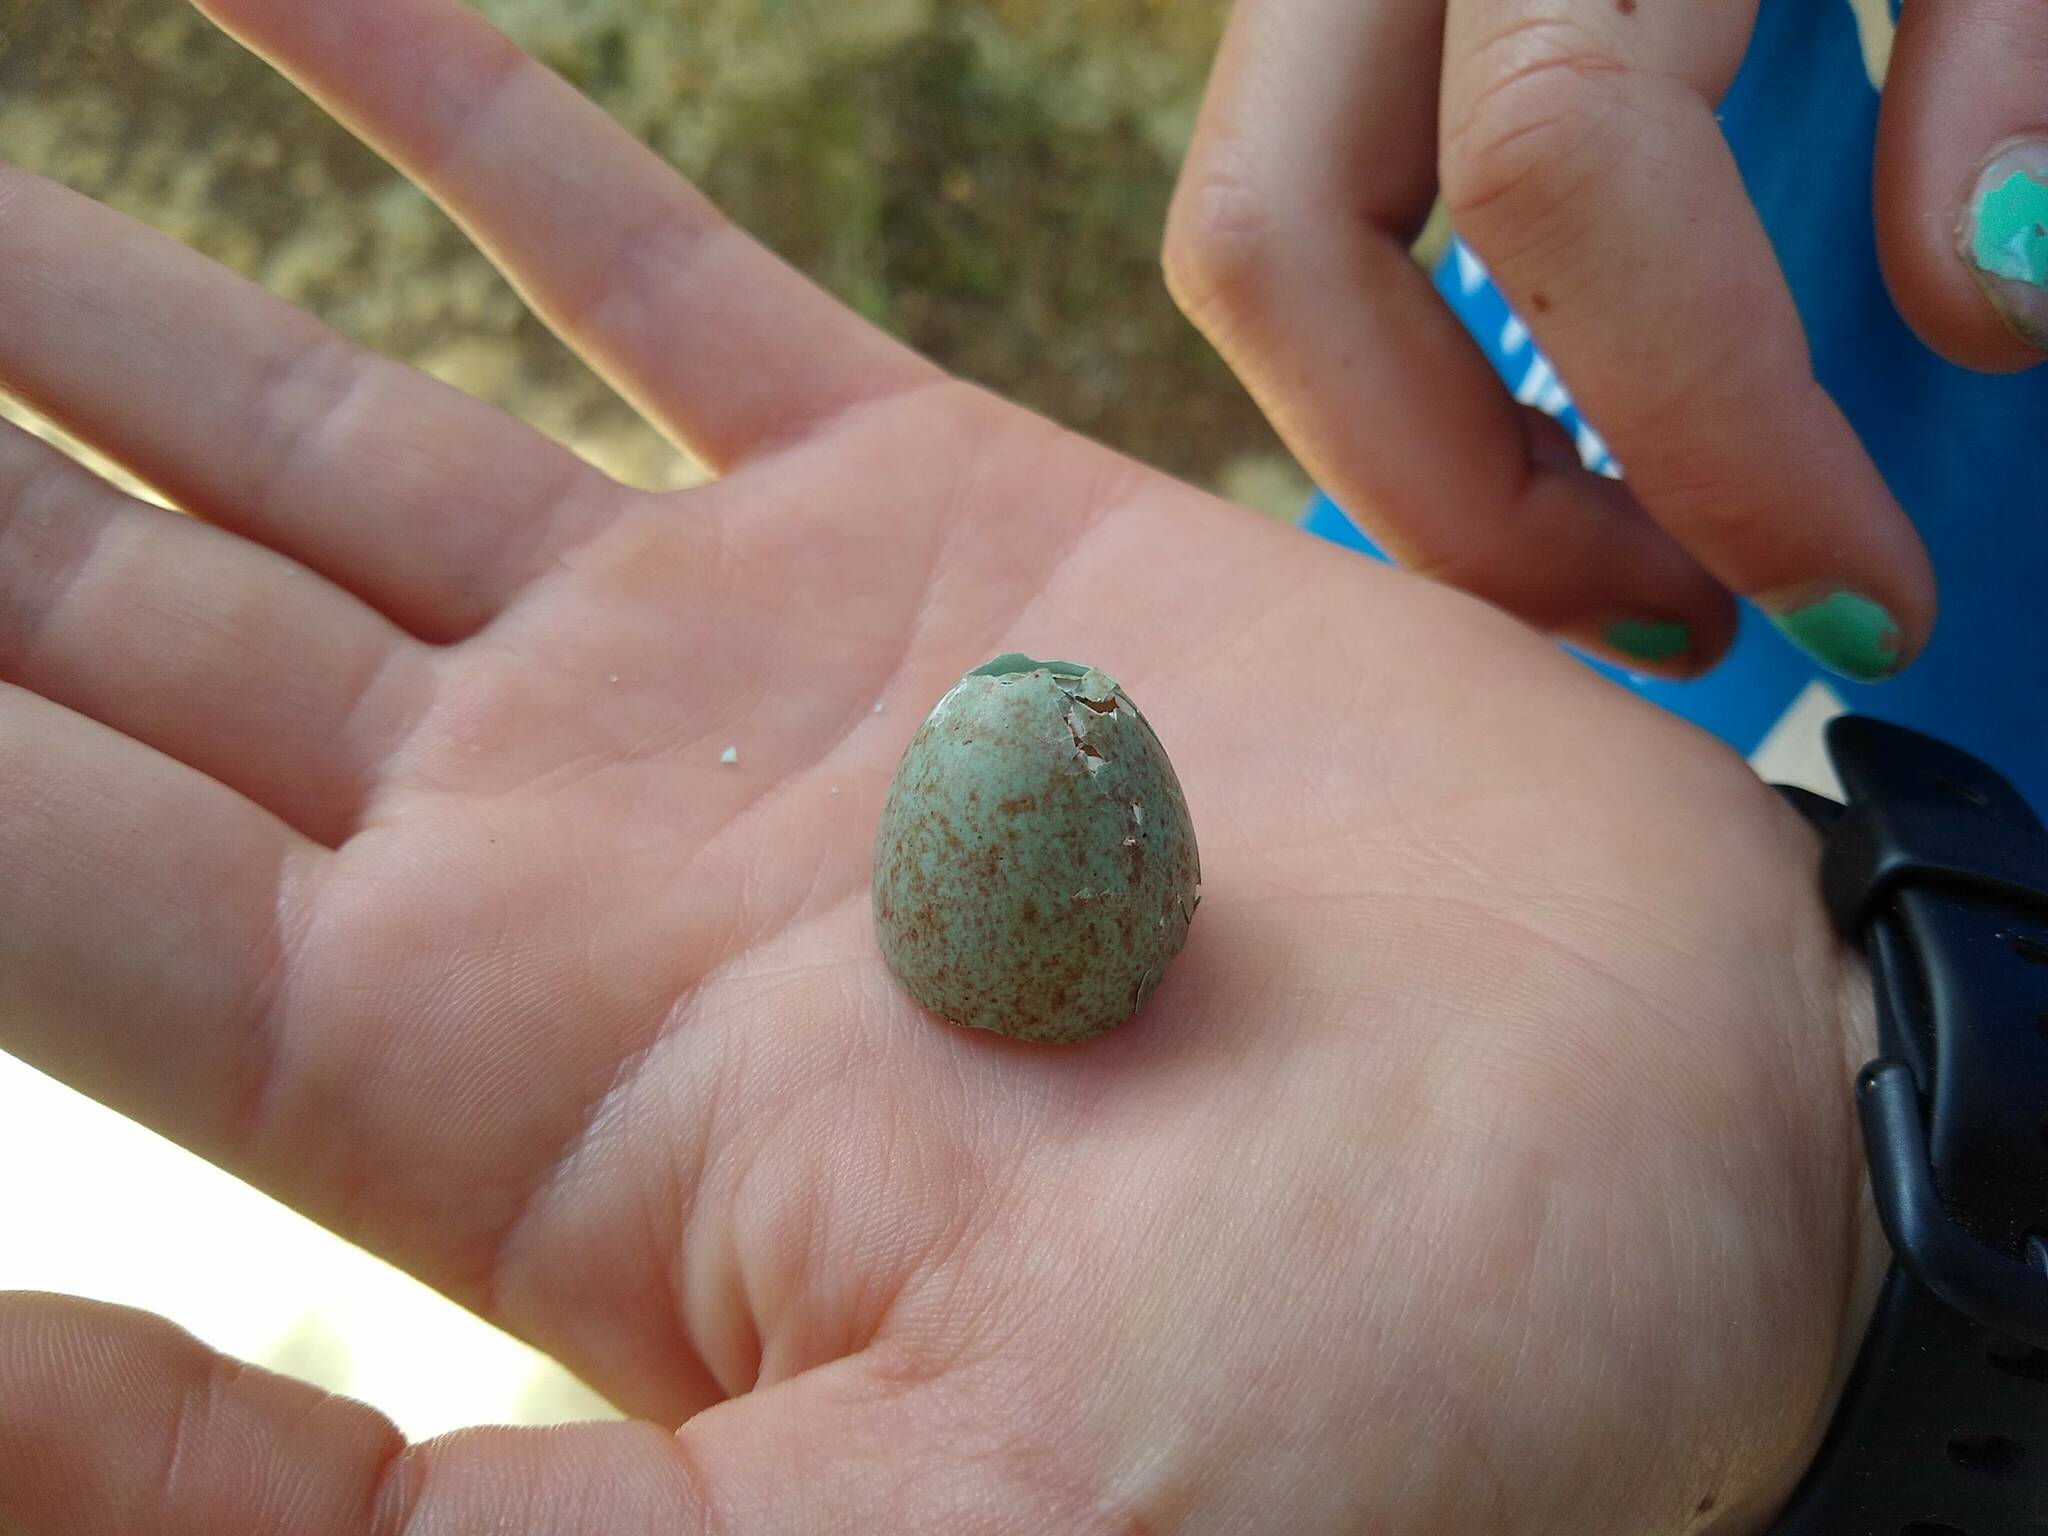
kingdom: Animalia
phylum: Chordata
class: Aves
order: Passeriformes
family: Turdidae
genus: Turdus
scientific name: Turdus merula
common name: Common blackbird
